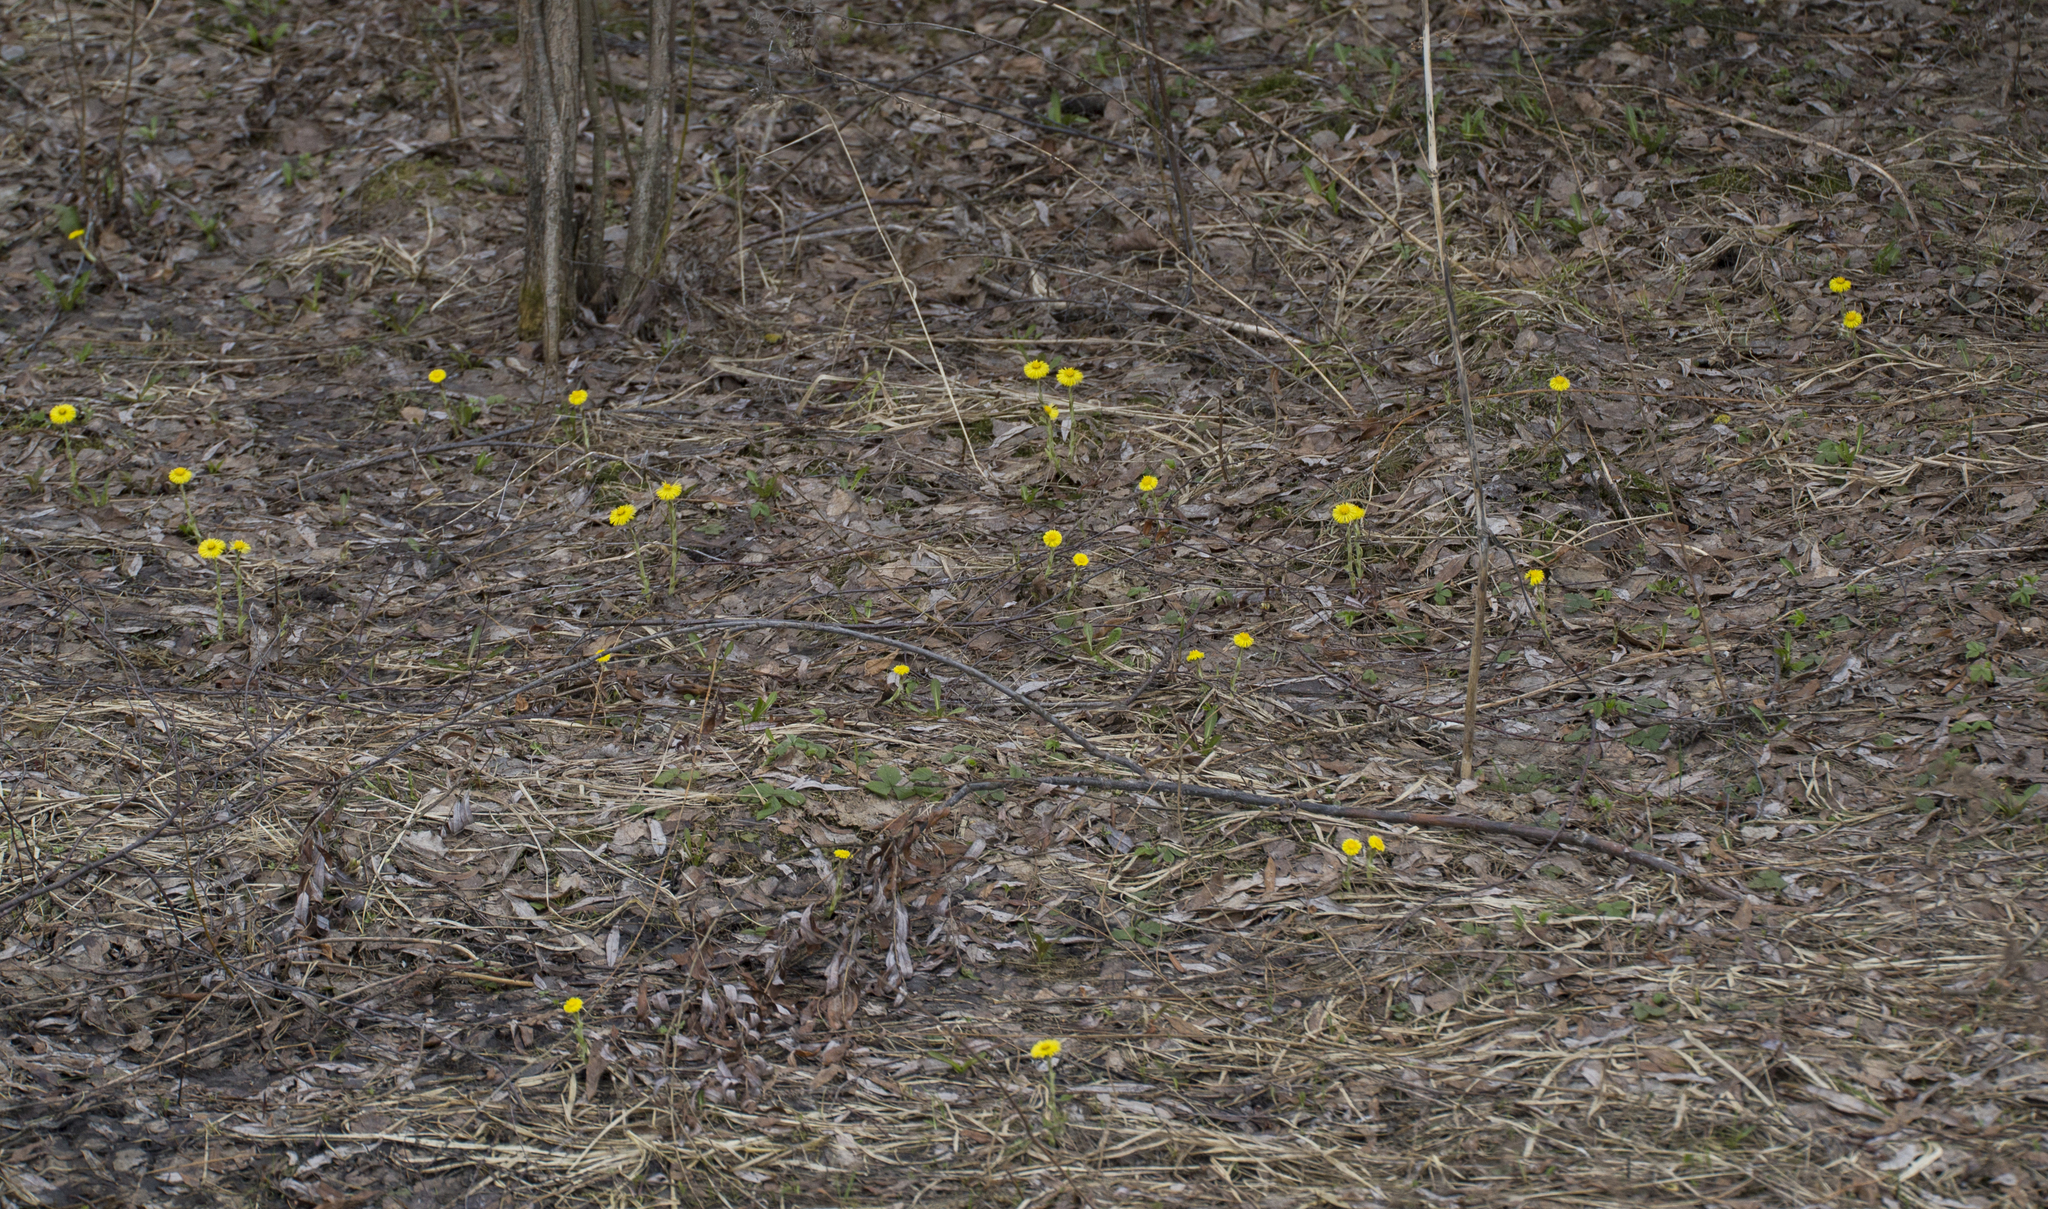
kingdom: Plantae
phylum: Tracheophyta
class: Magnoliopsida
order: Asterales
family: Asteraceae
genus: Tussilago
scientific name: Tussilago farfara
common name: Coltsfoot
